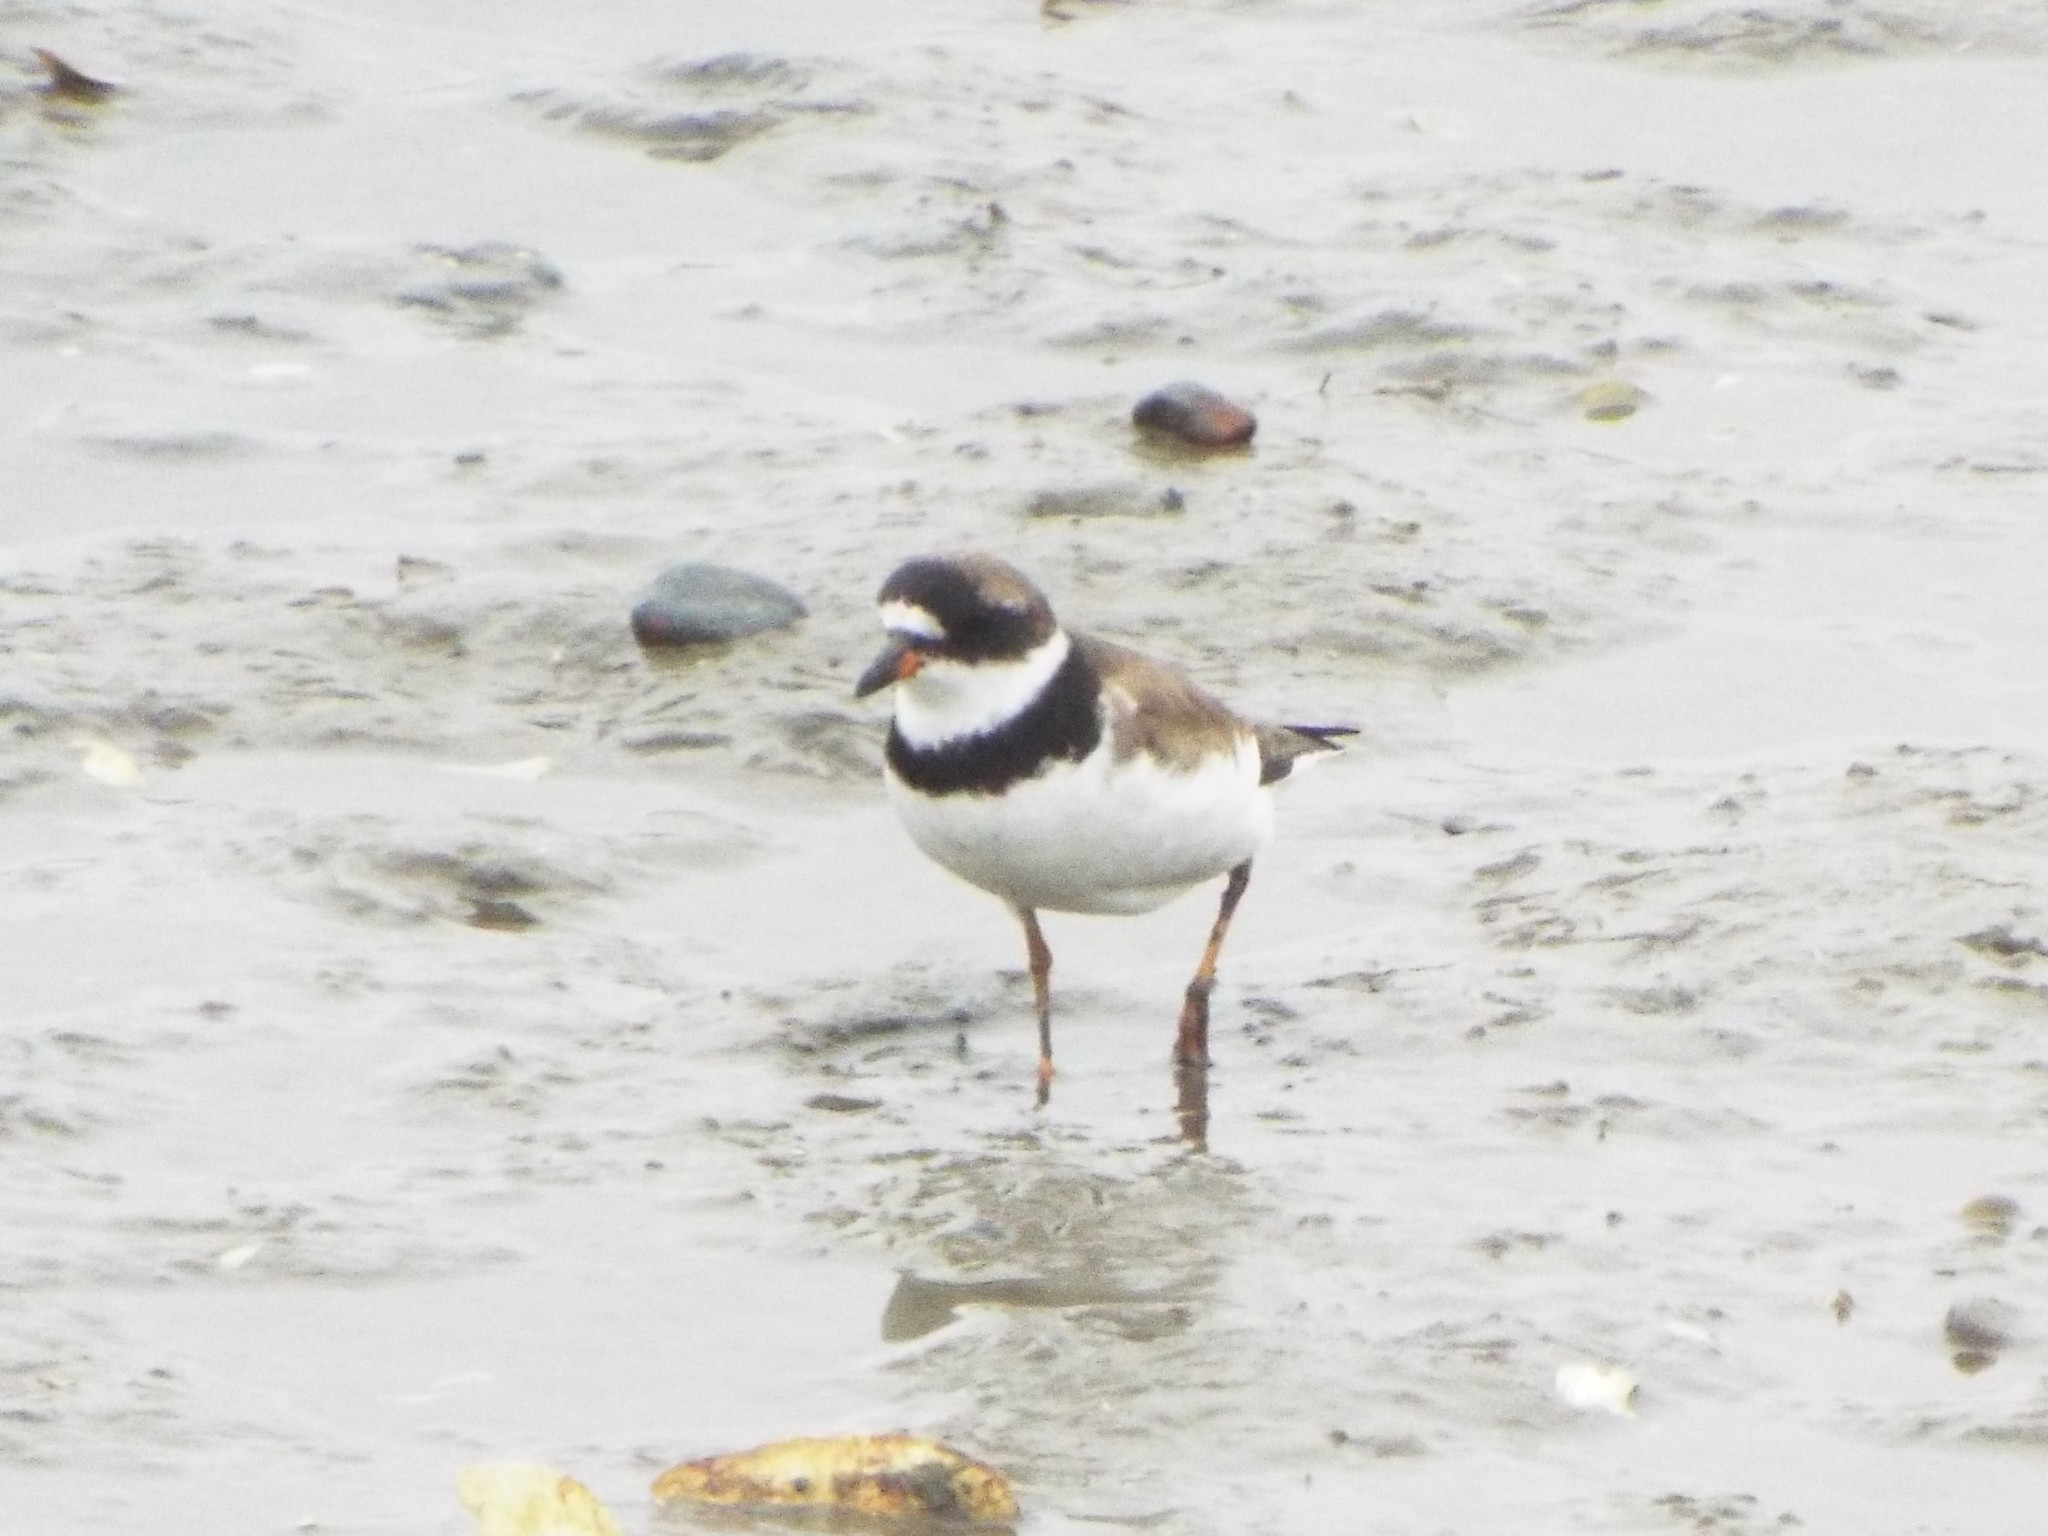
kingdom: Animalia
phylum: Chordata
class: Aves
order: Charadriiformes
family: Charadriidae
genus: Charadrius
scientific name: Charadrius semipalmatus
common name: Semipalmated plover
